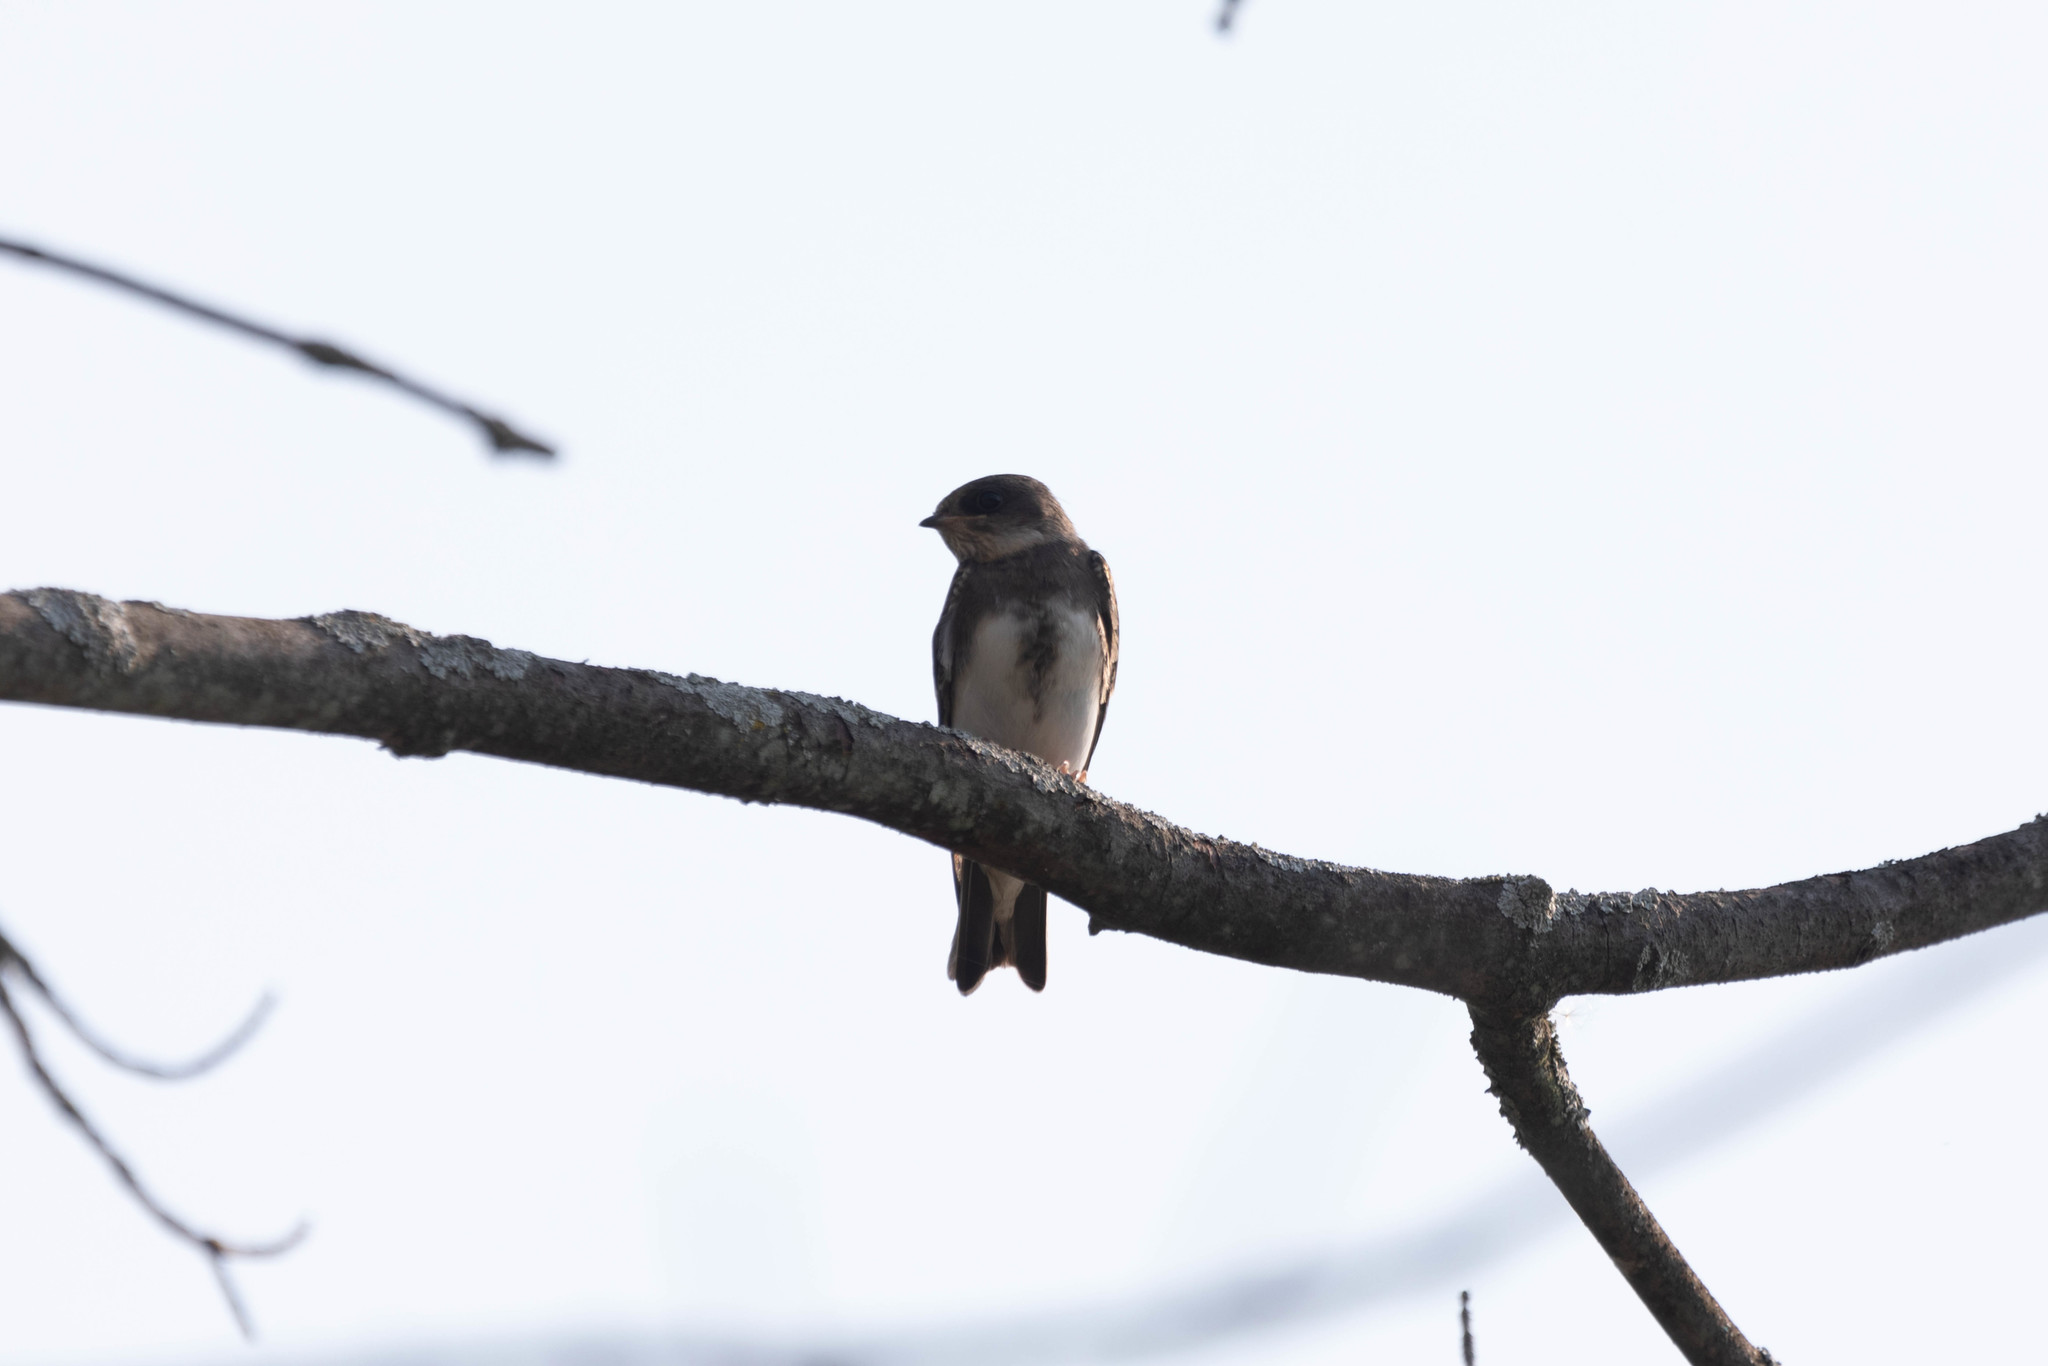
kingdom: Animalia
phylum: Chordata
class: Aves
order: Passeriformes
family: Hirundinidae
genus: Riparia
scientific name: Riparia riparia
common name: Sand martin
